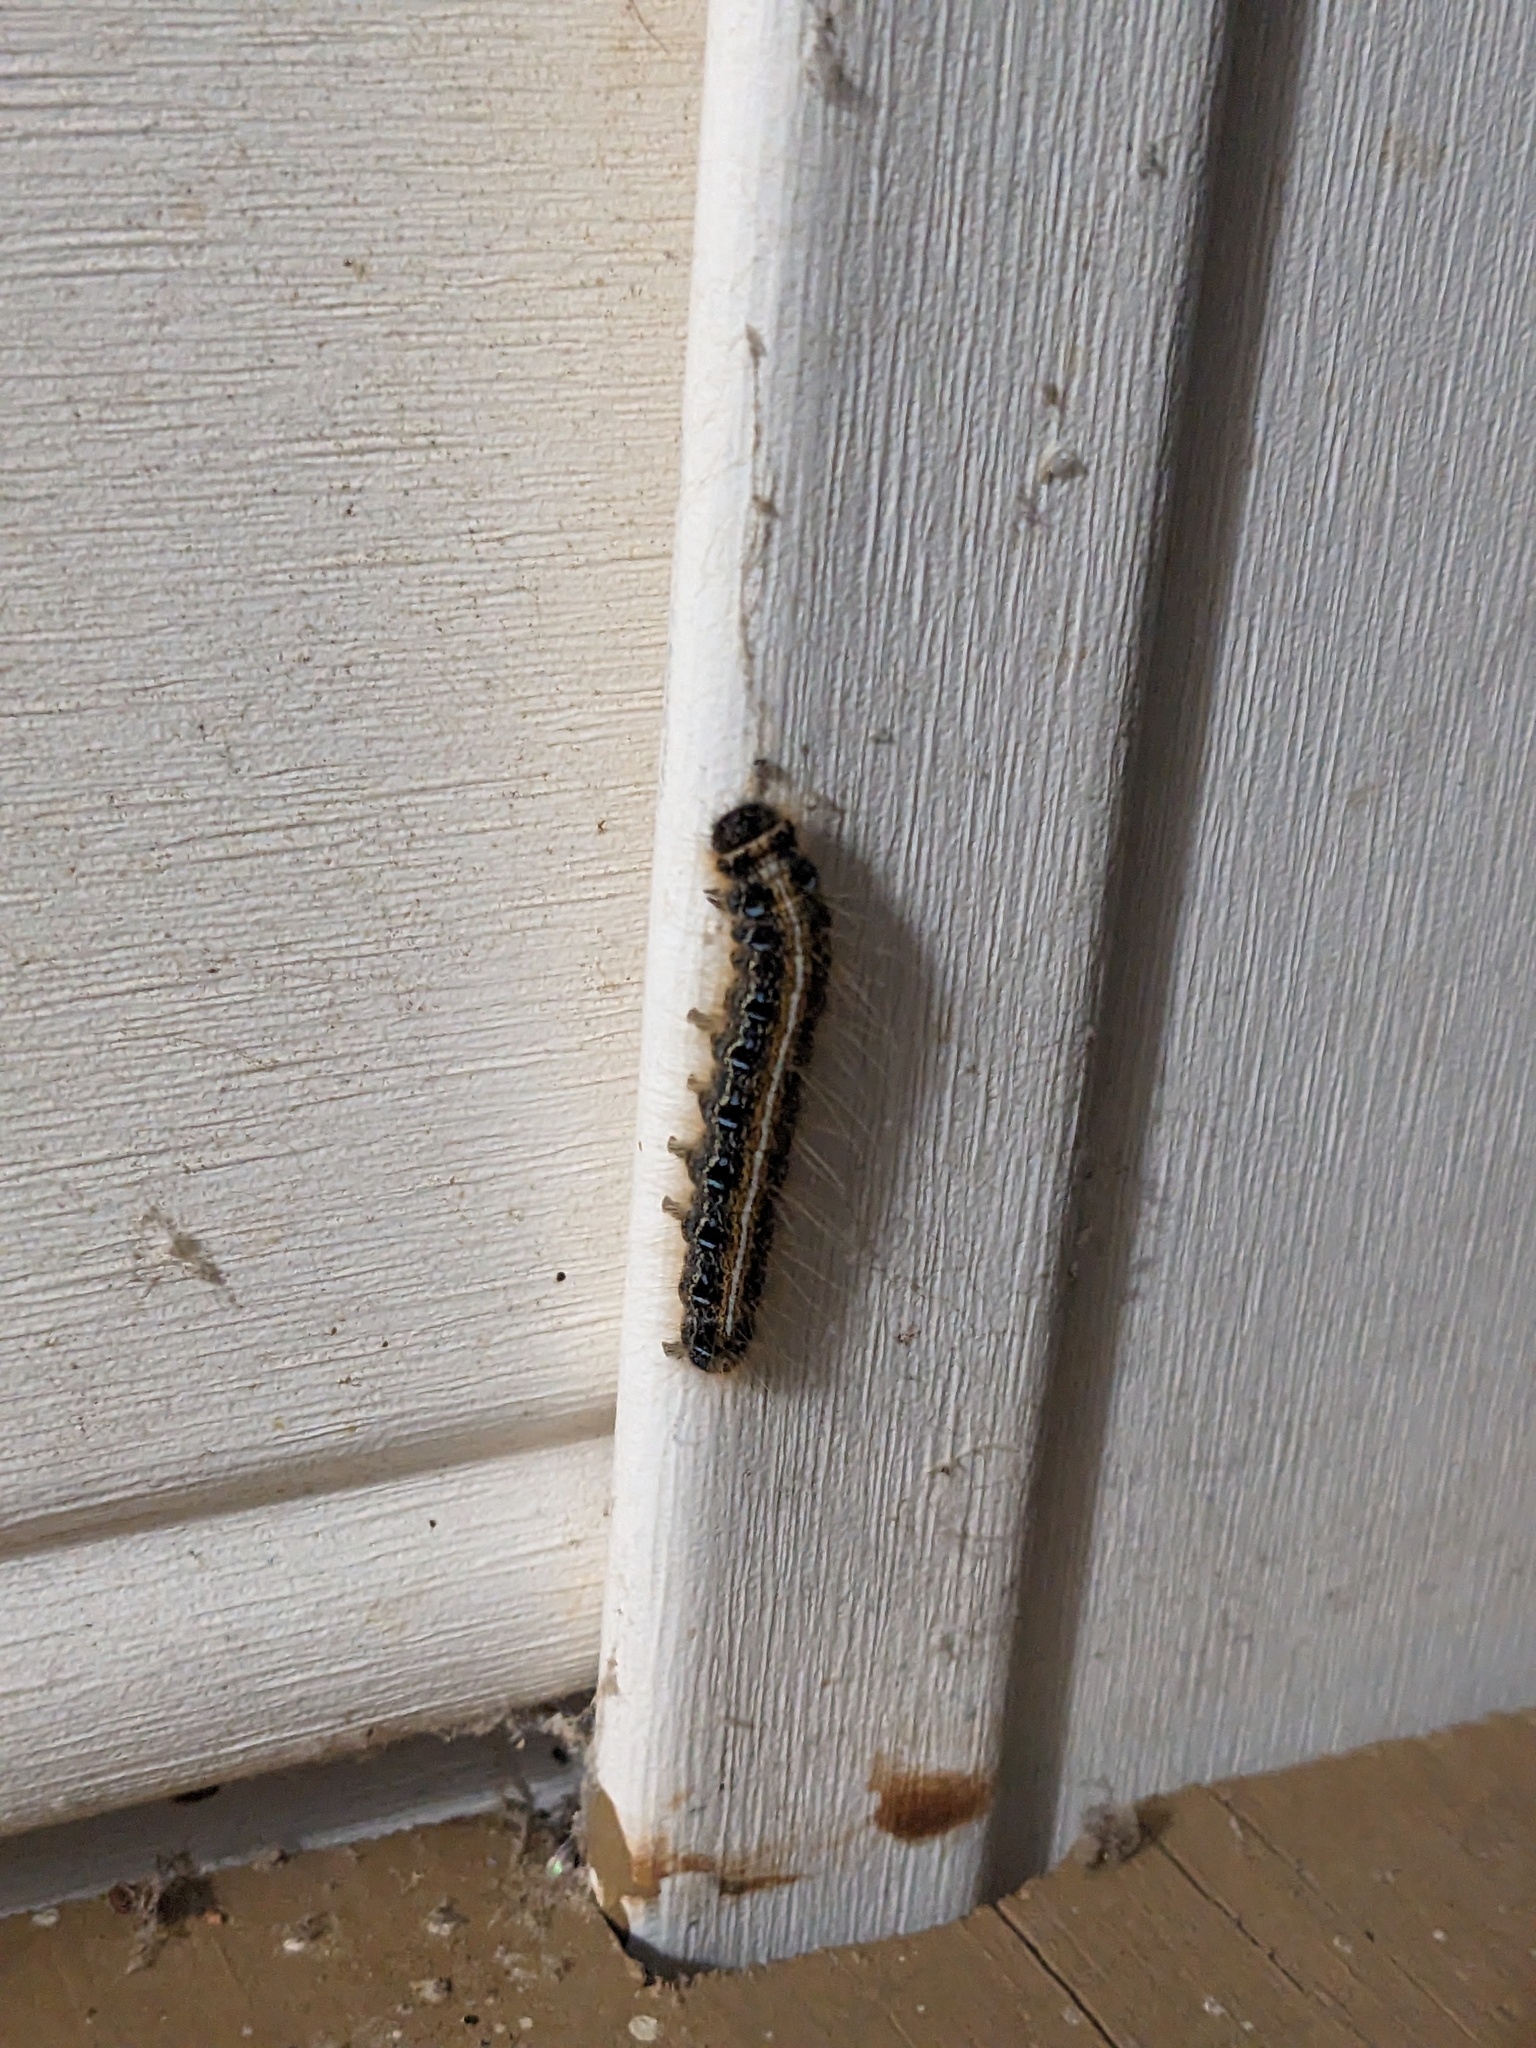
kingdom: Animalia
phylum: Arthropoda
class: Insecta
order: Lepidoptera
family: Lasiocampidae
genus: Malacosoma
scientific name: Malacosoma americana
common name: Eastern tent caterpillar moth
